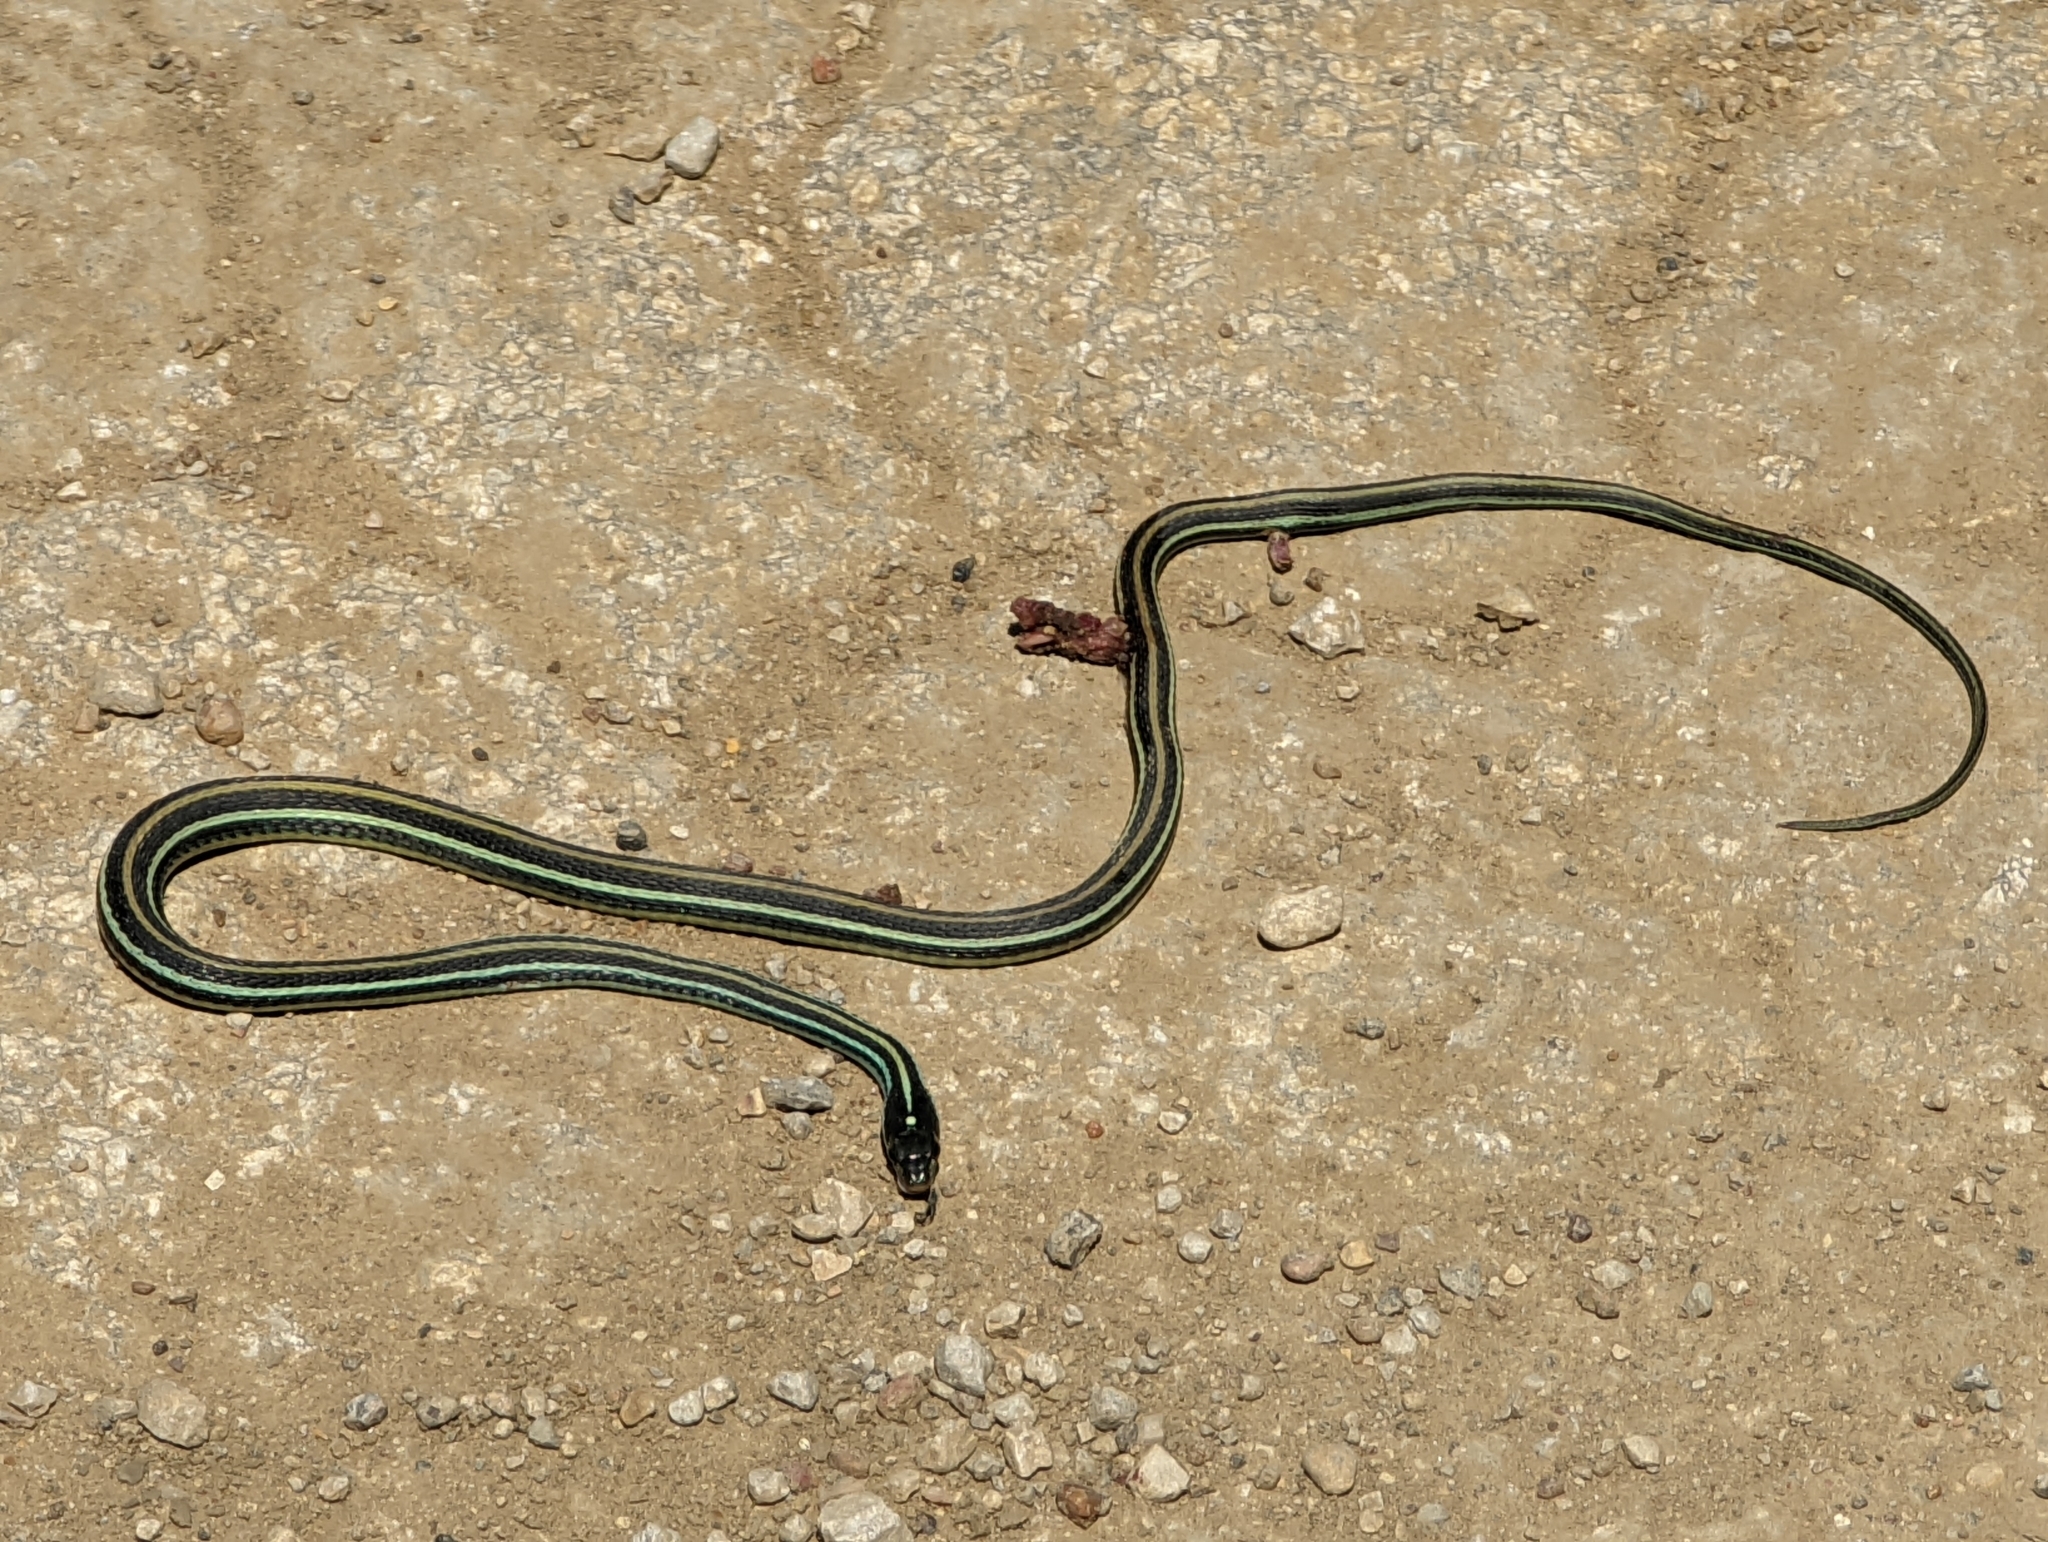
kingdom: Animalia
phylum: Chordata
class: Squamata
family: Colubridae
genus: Thamnophis
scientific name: Thamnophis proximus
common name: Western ribbon snake
